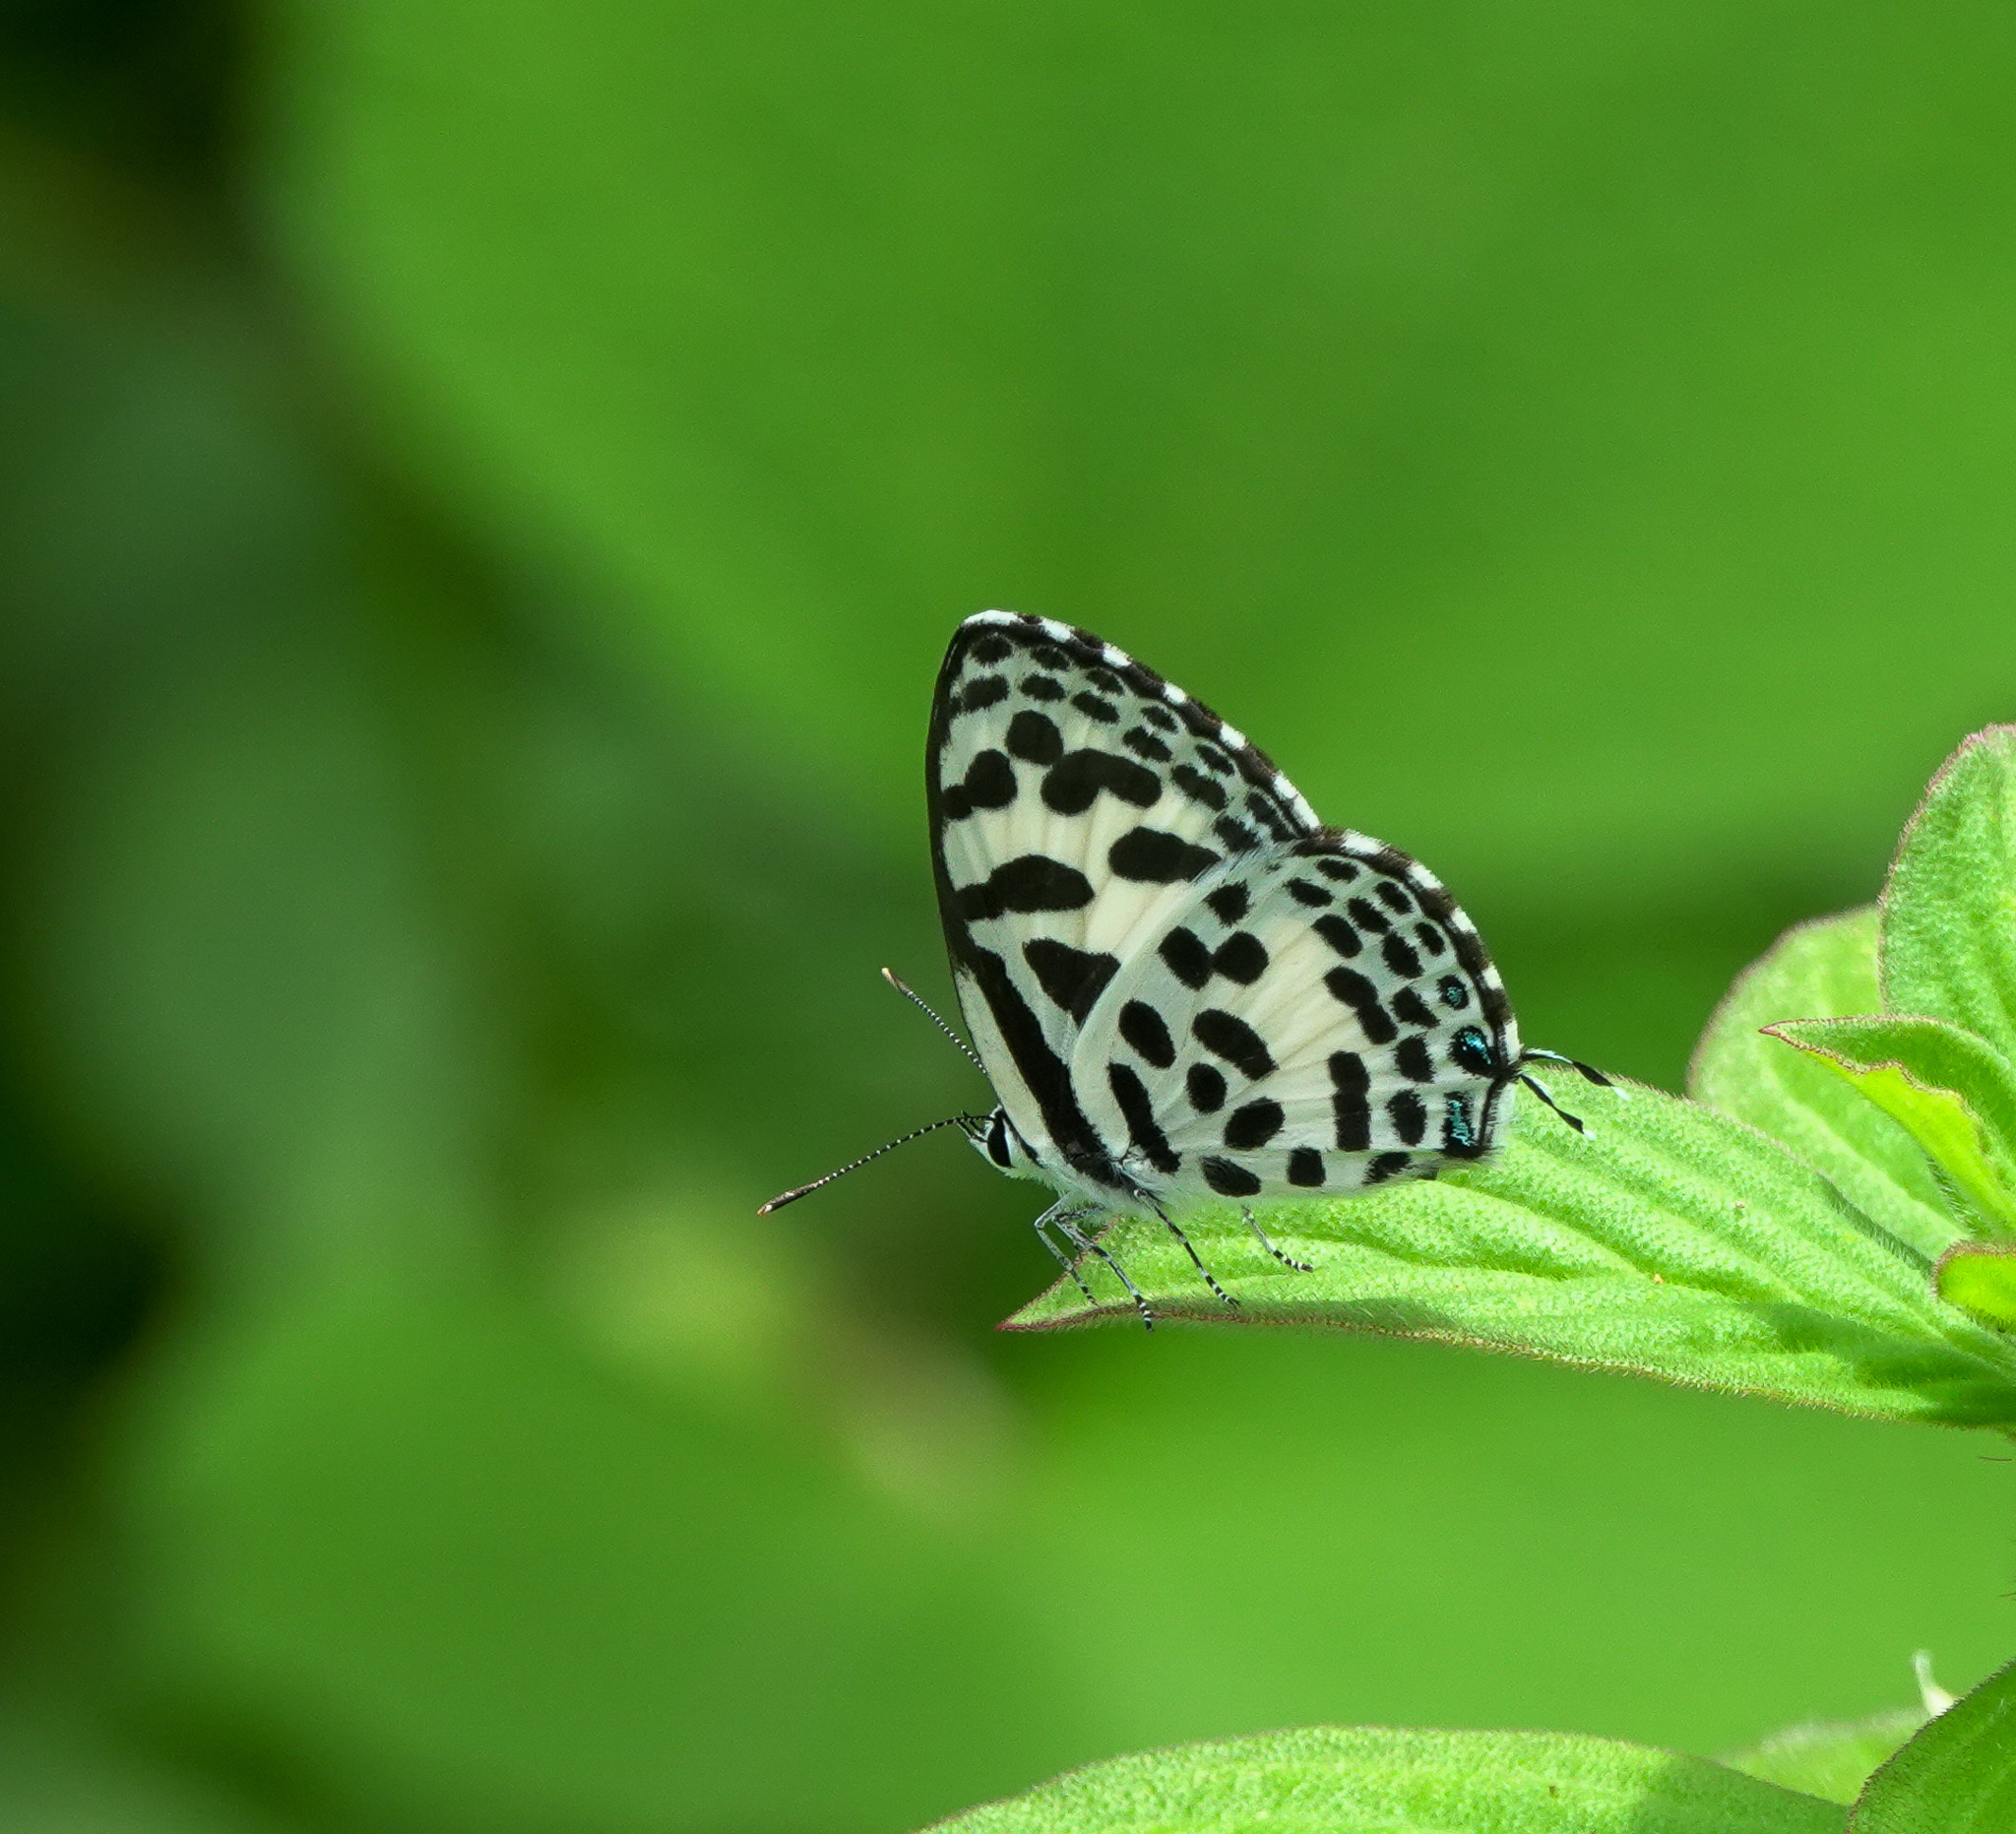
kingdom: Animalia
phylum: Arthropoda
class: Insecta
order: Lepidoptera
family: Lycaenidae
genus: Castalius
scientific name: Castalius rosimon
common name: Common pierrot
